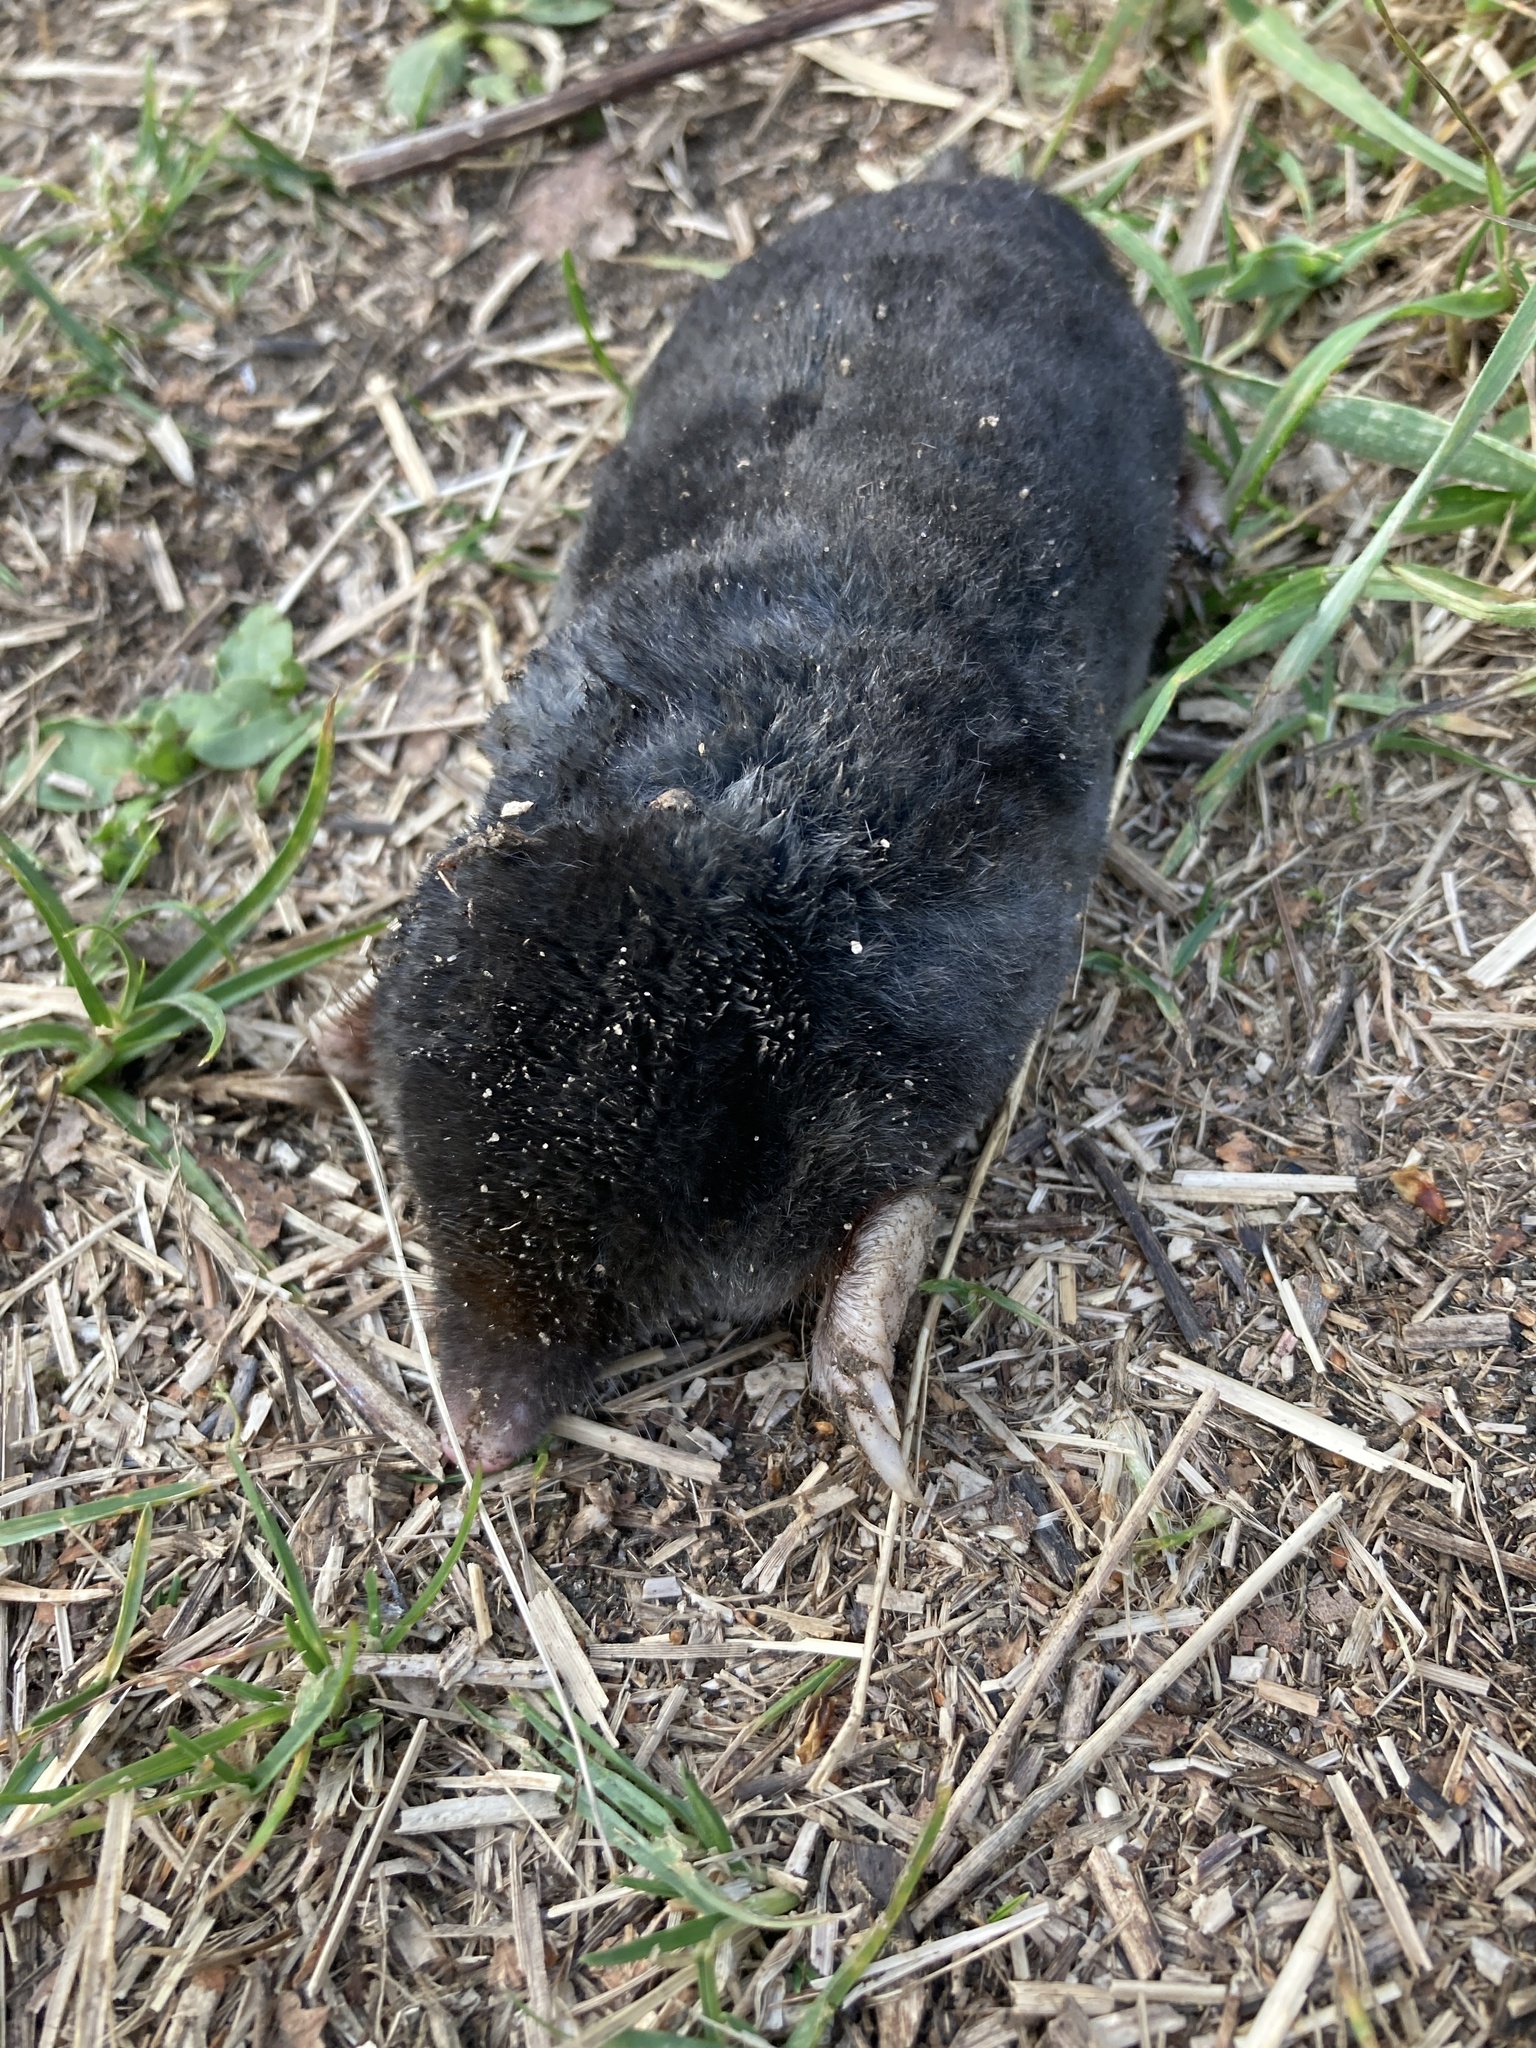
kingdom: Animalia
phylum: Chordata
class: Mammalia
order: Soricomorpha
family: Talpidae
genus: Talpa
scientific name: Talpa europaea
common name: European mole
